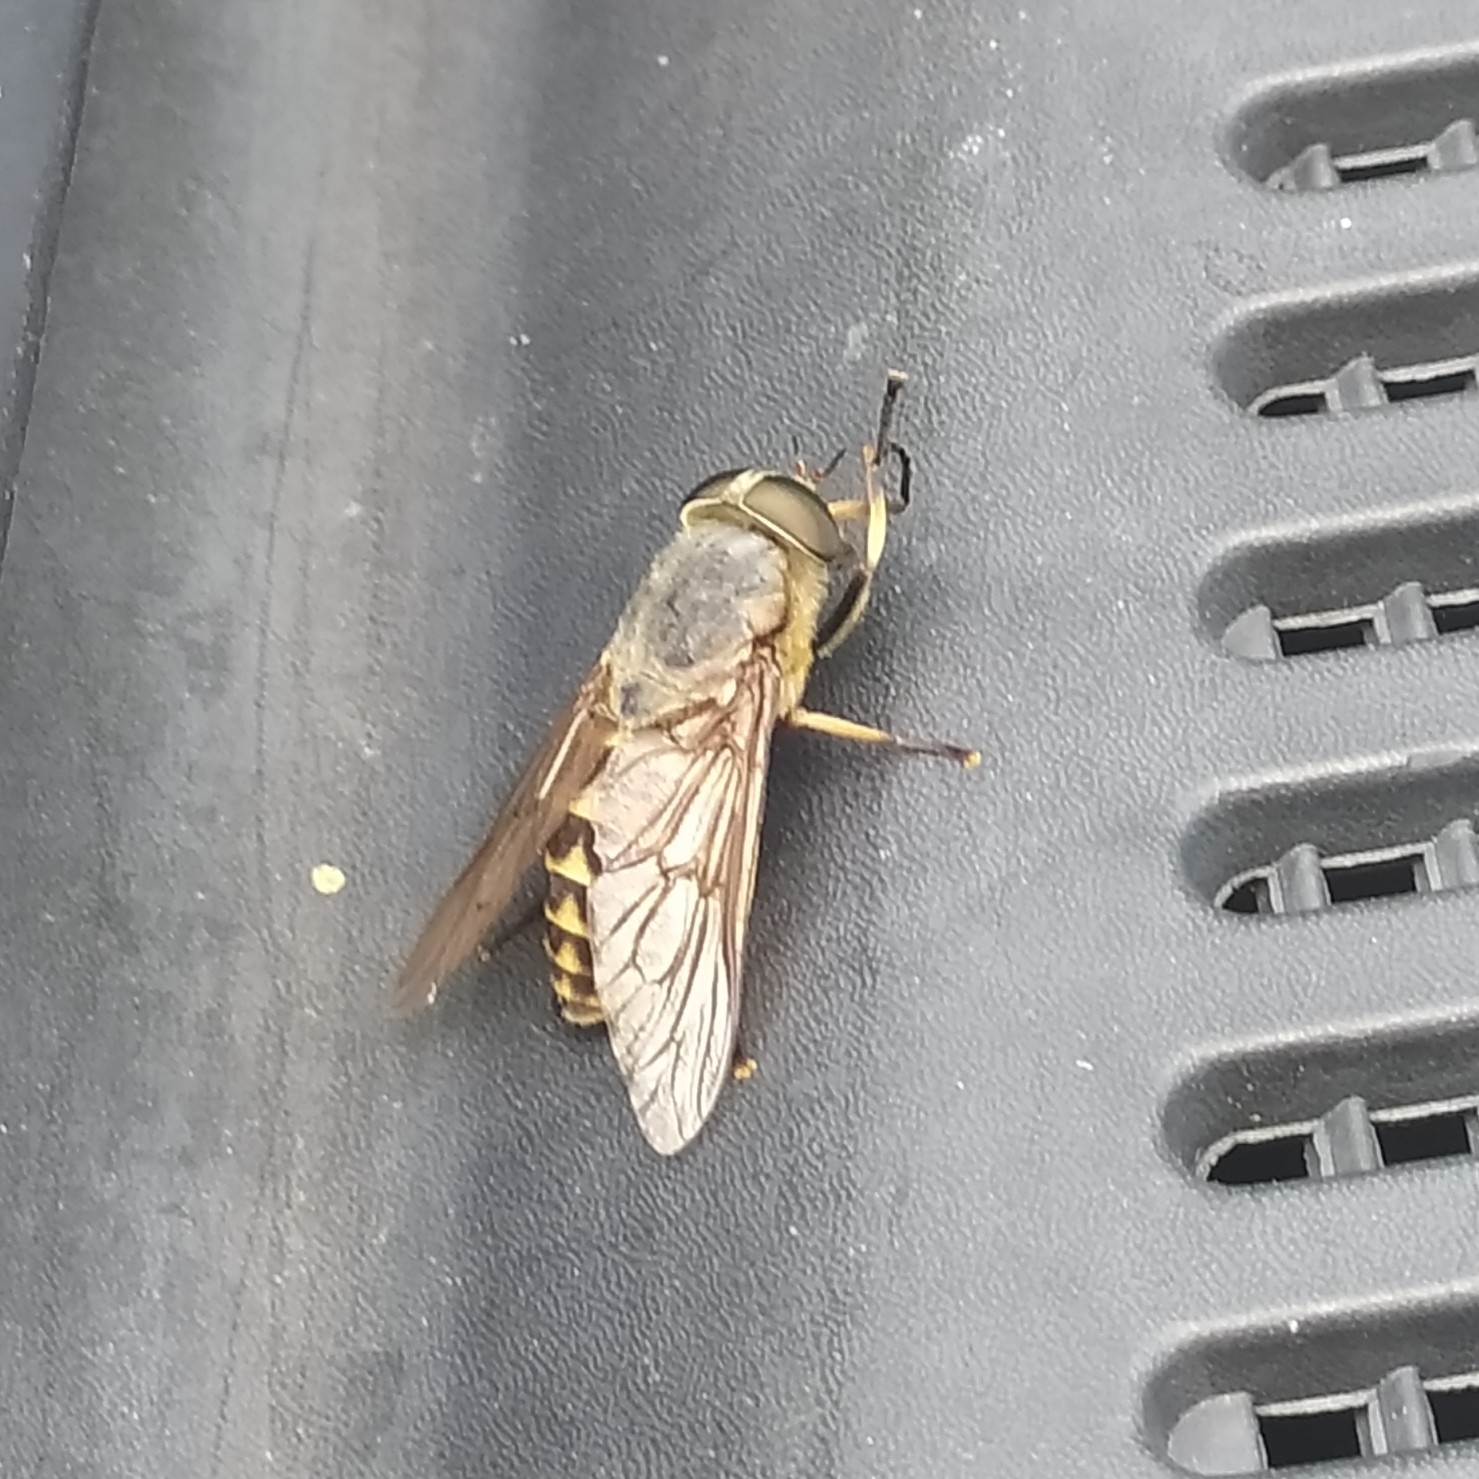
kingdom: Animalia
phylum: Arthropoda
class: Insecta
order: Diptera
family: Tabanidae
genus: Tabanus
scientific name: Tabanus sudeticus
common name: Dark giant horsefly
